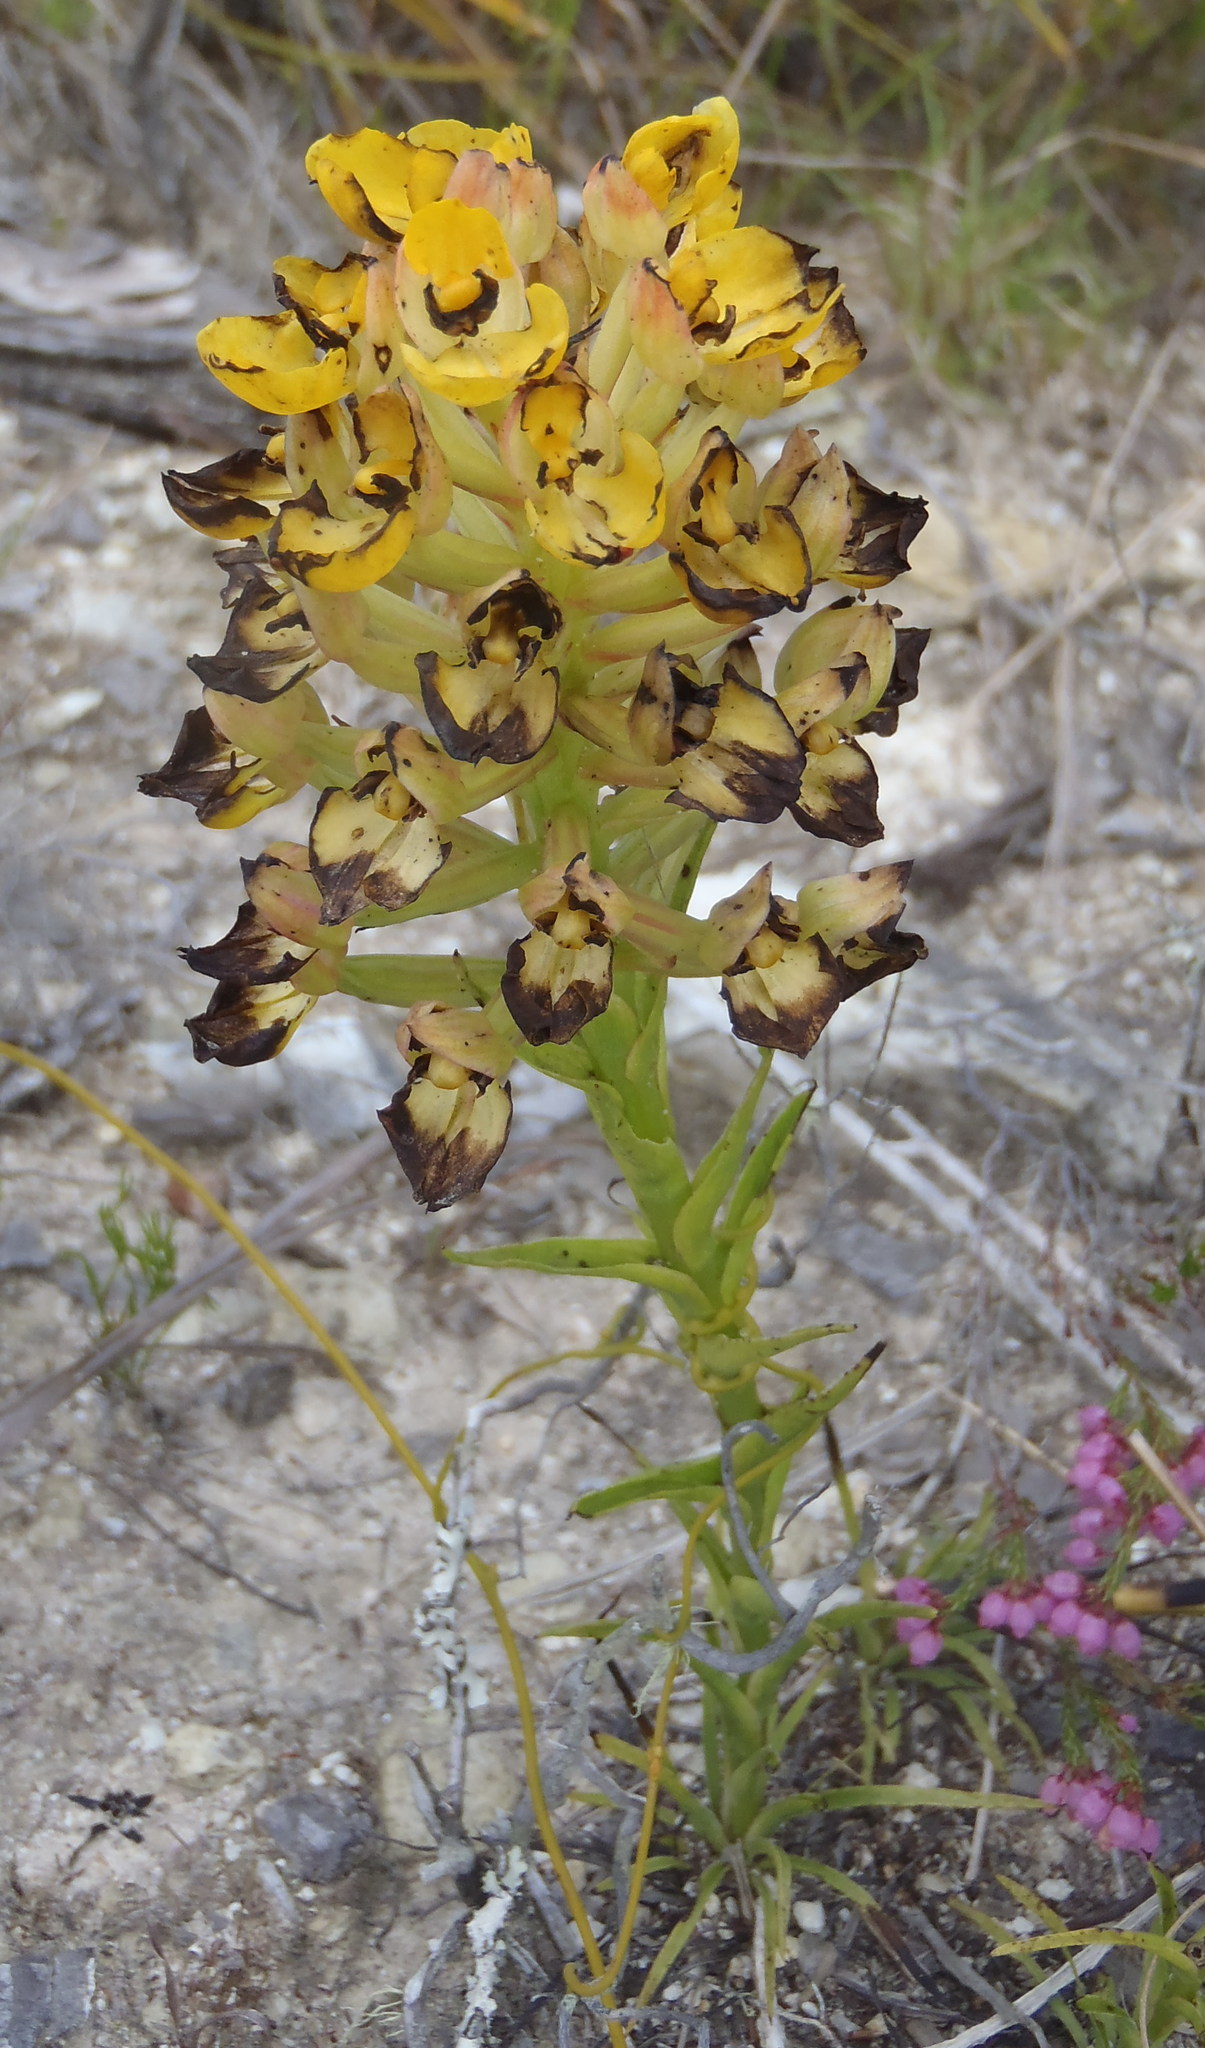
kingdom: Plantae
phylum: Tracheophyta
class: Liliopsida
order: Asparagales
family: Orchidaceae
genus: Ceratandra
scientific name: Ceratandra grandiflora
